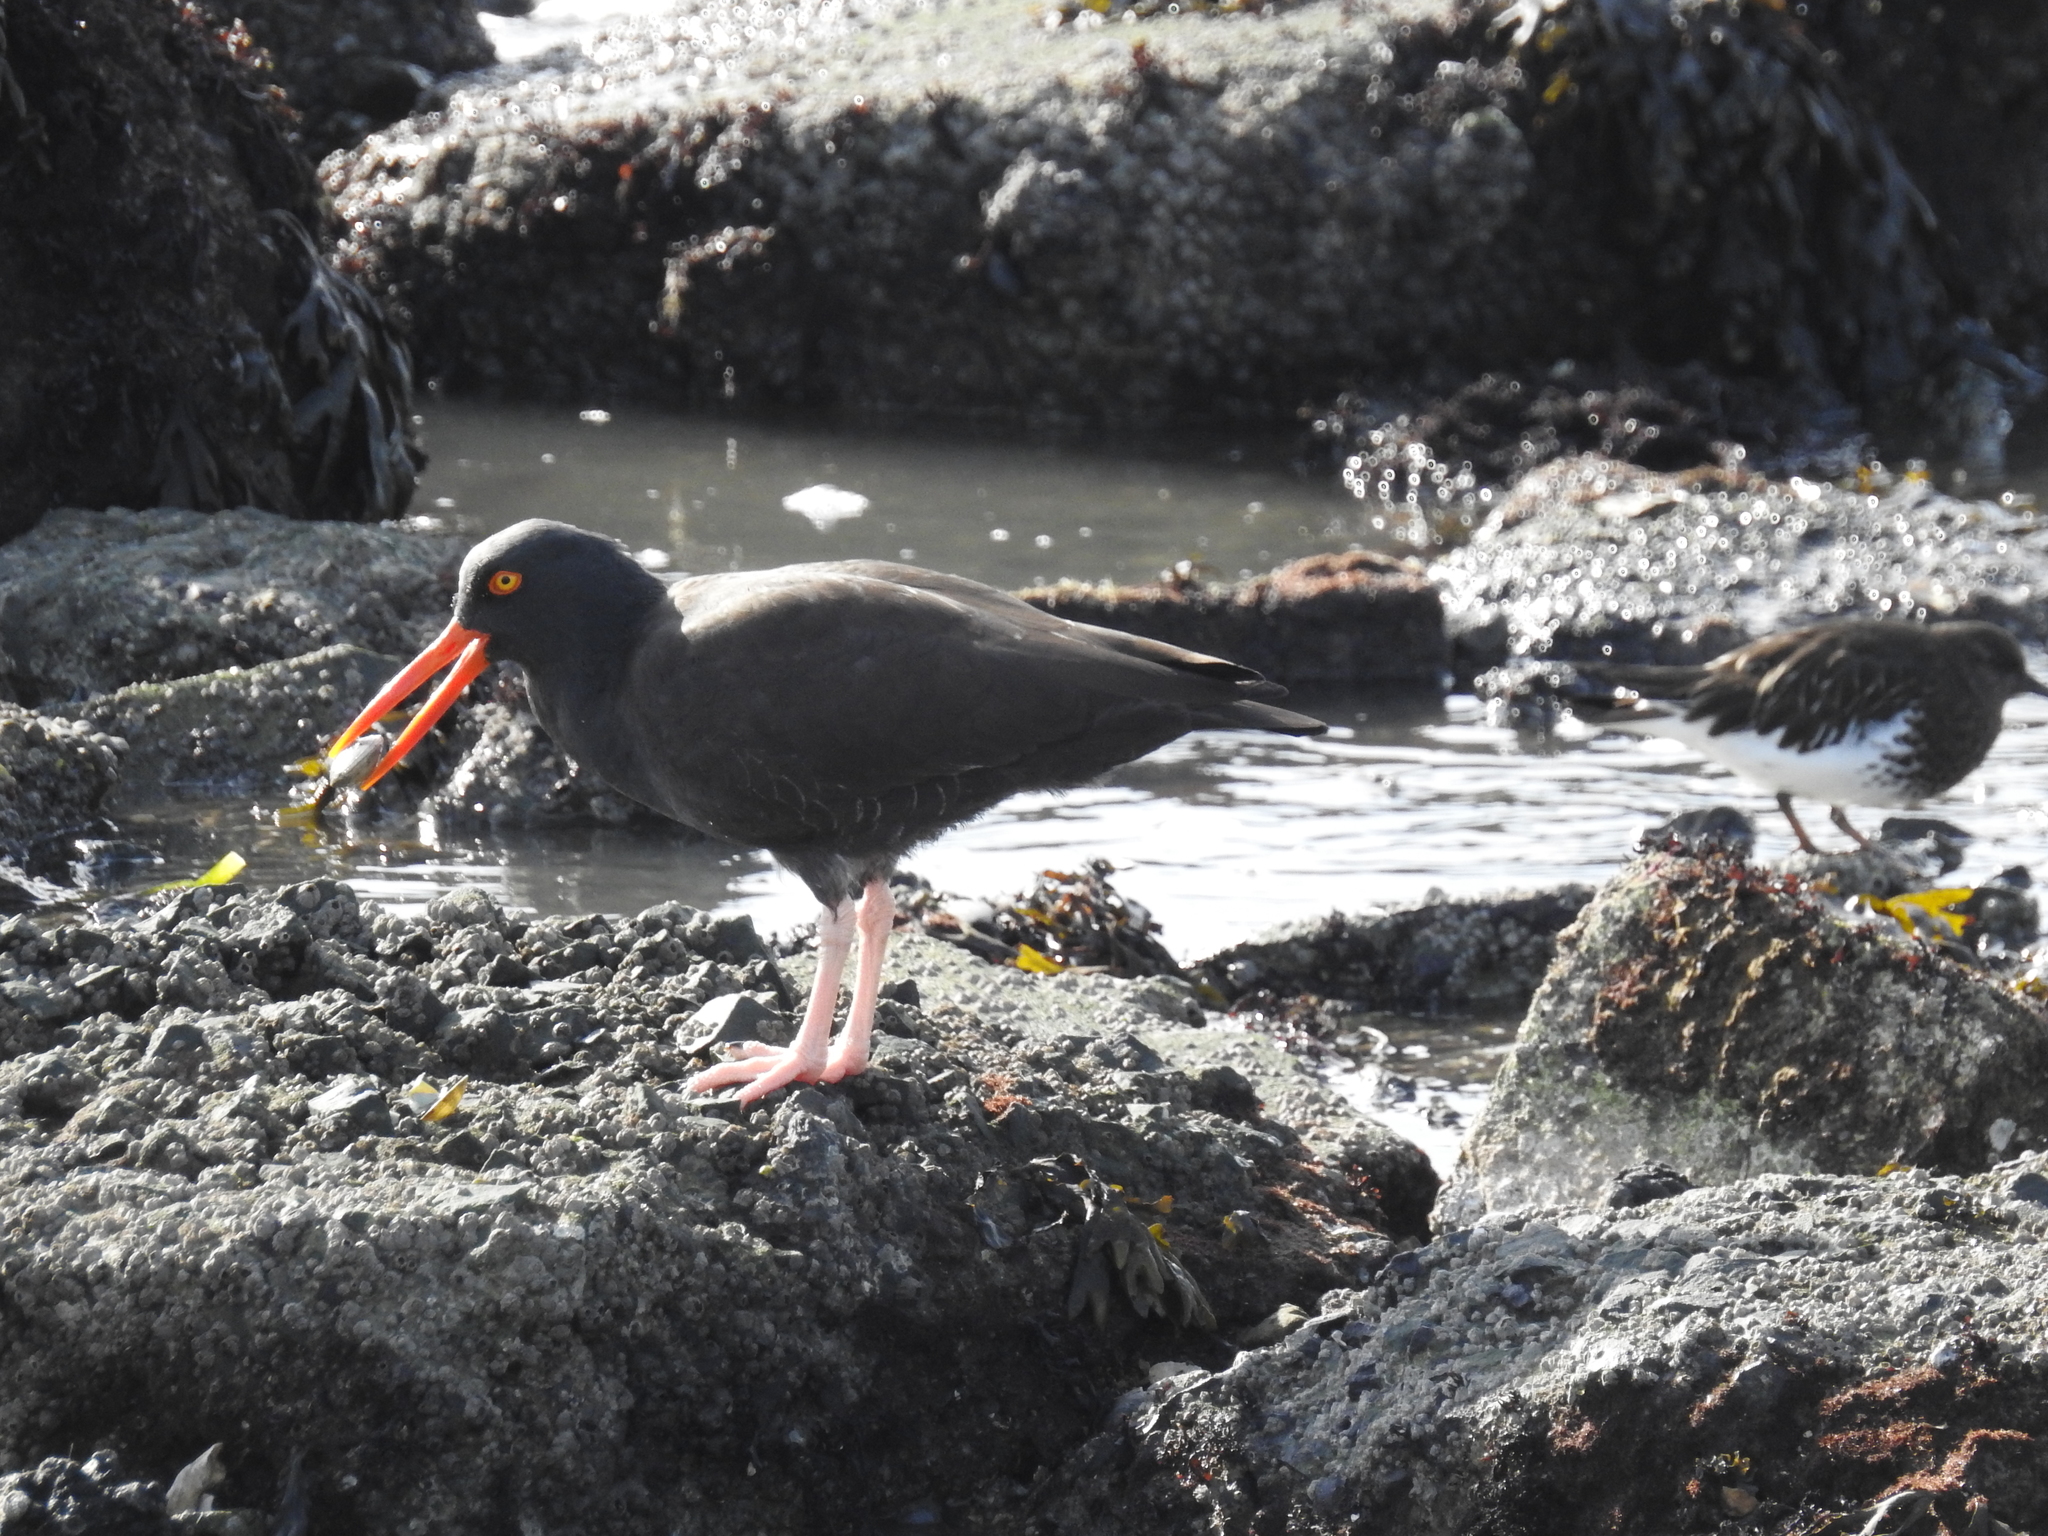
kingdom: Animalia
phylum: Chordata
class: Aves
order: Charadriiformes
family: Haematopodidae
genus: Haematopus
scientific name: Haematopus bachmani
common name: Black oystercatcher
